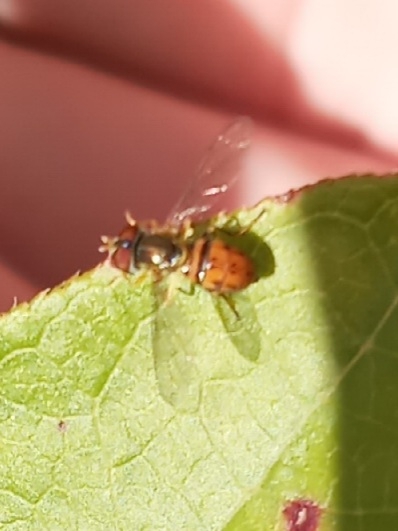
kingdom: Animalia
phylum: Arthropoda
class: Insecta
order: Diptera
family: Syrphidae
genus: Toxomerus
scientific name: Toxomerus boscii
